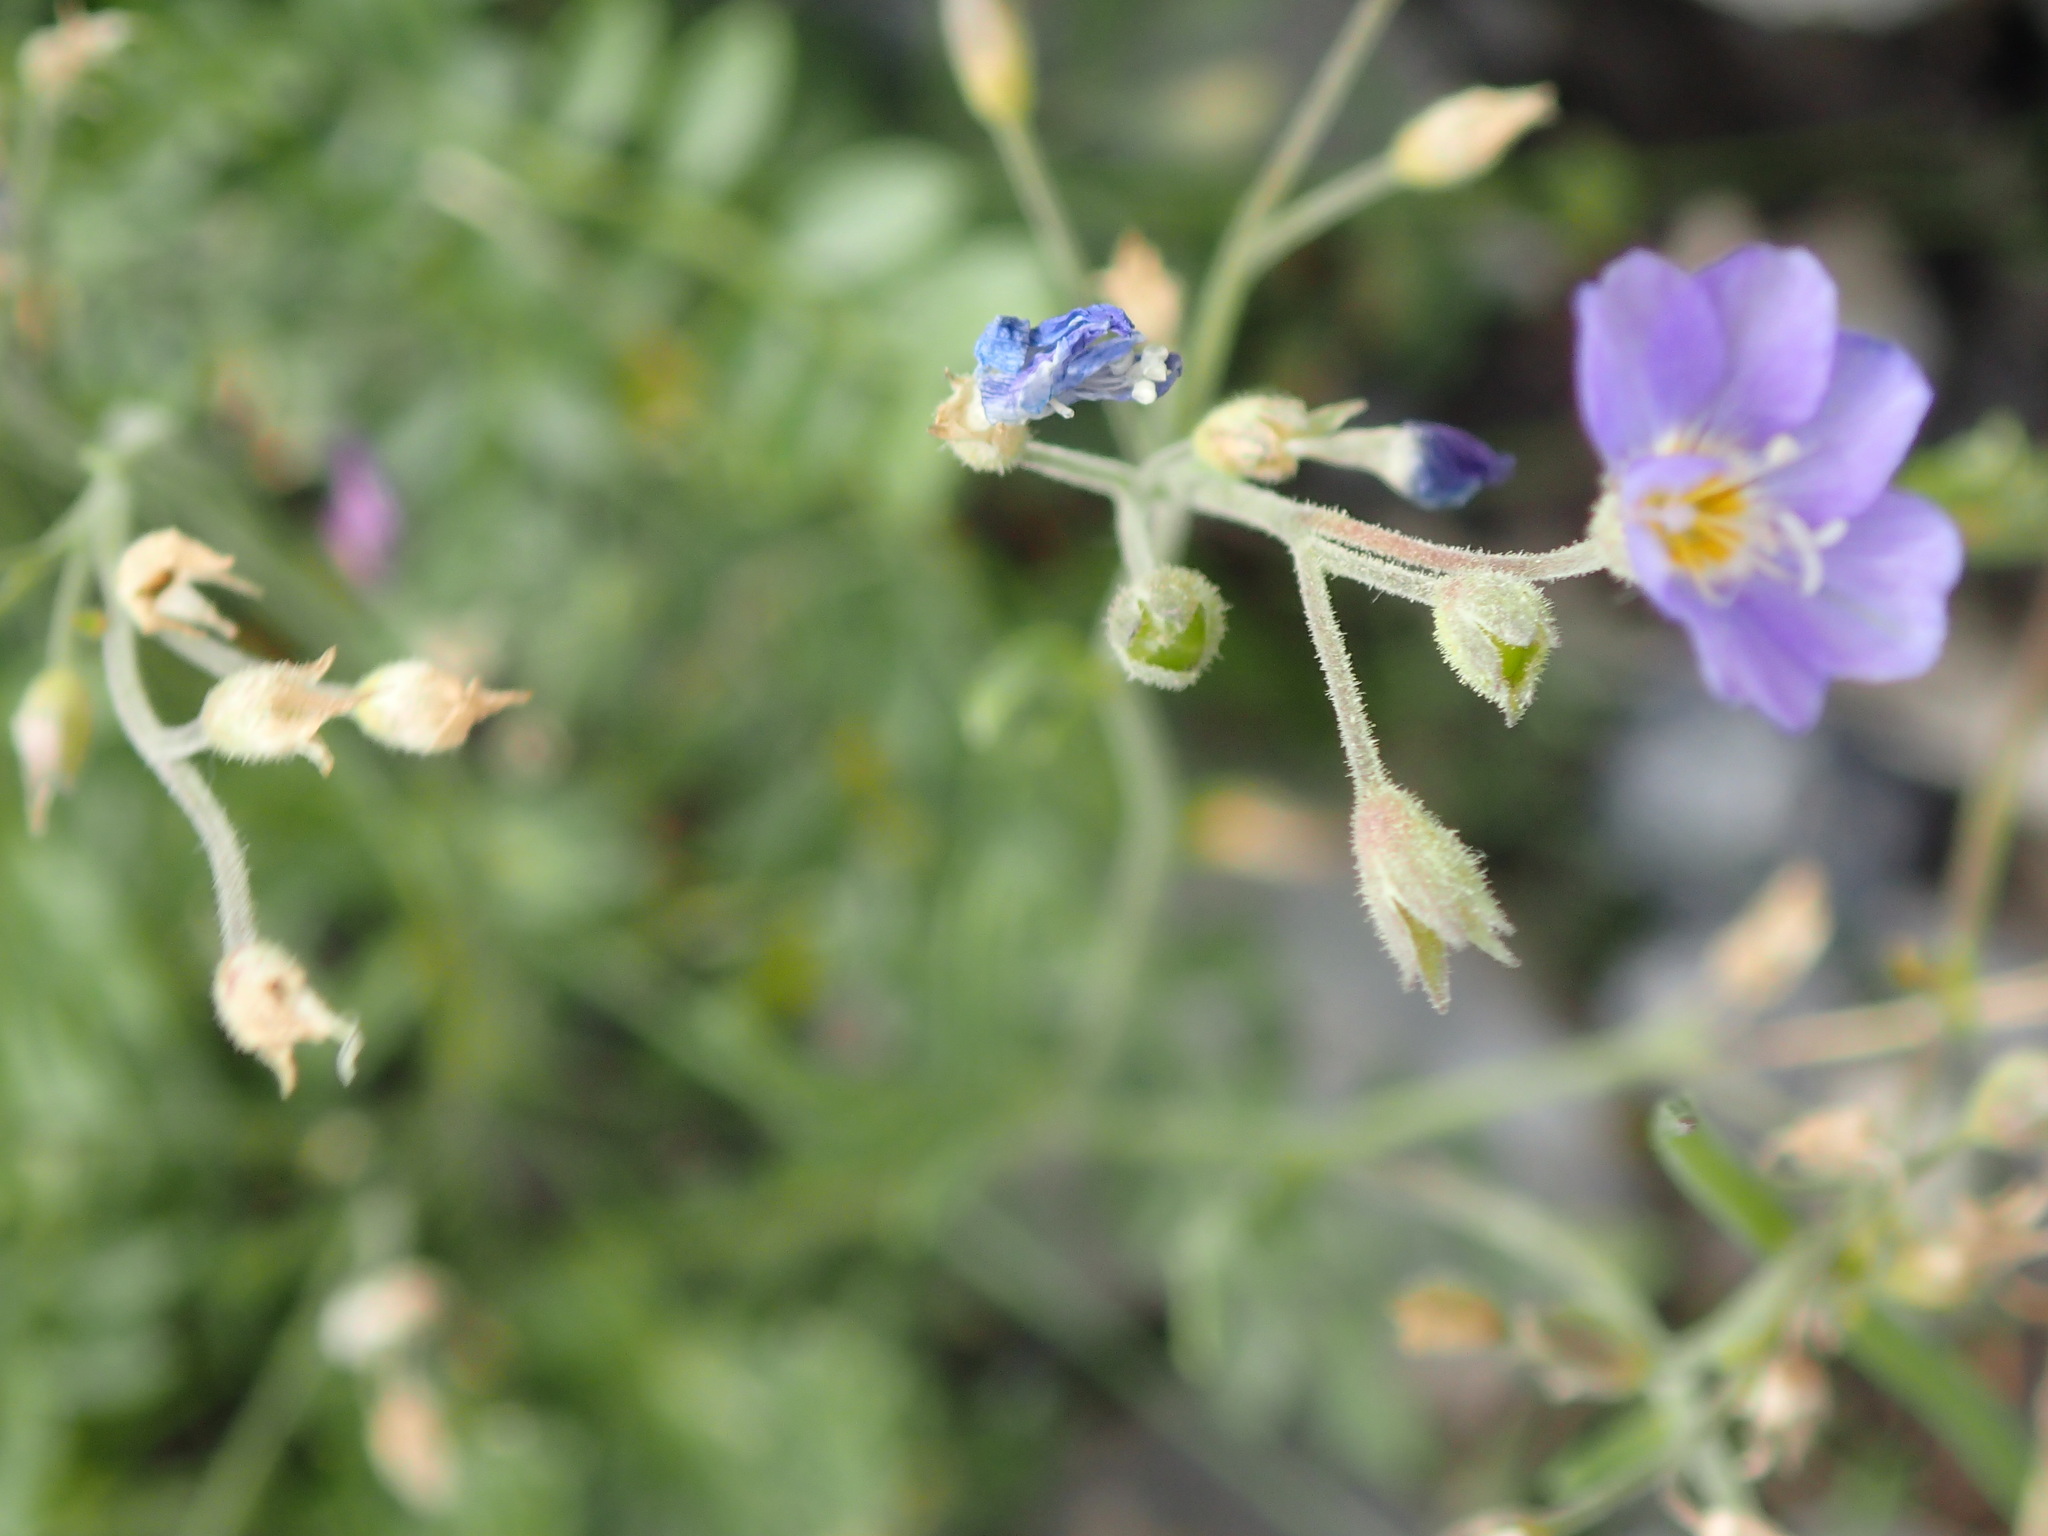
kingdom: Plantae
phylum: Tracheophyta
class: Magnoliopsida
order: Ericales
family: Polemoniaceae
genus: Polemonium
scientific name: Polemonium pulcherrimum
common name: Short jacob's-ladder
